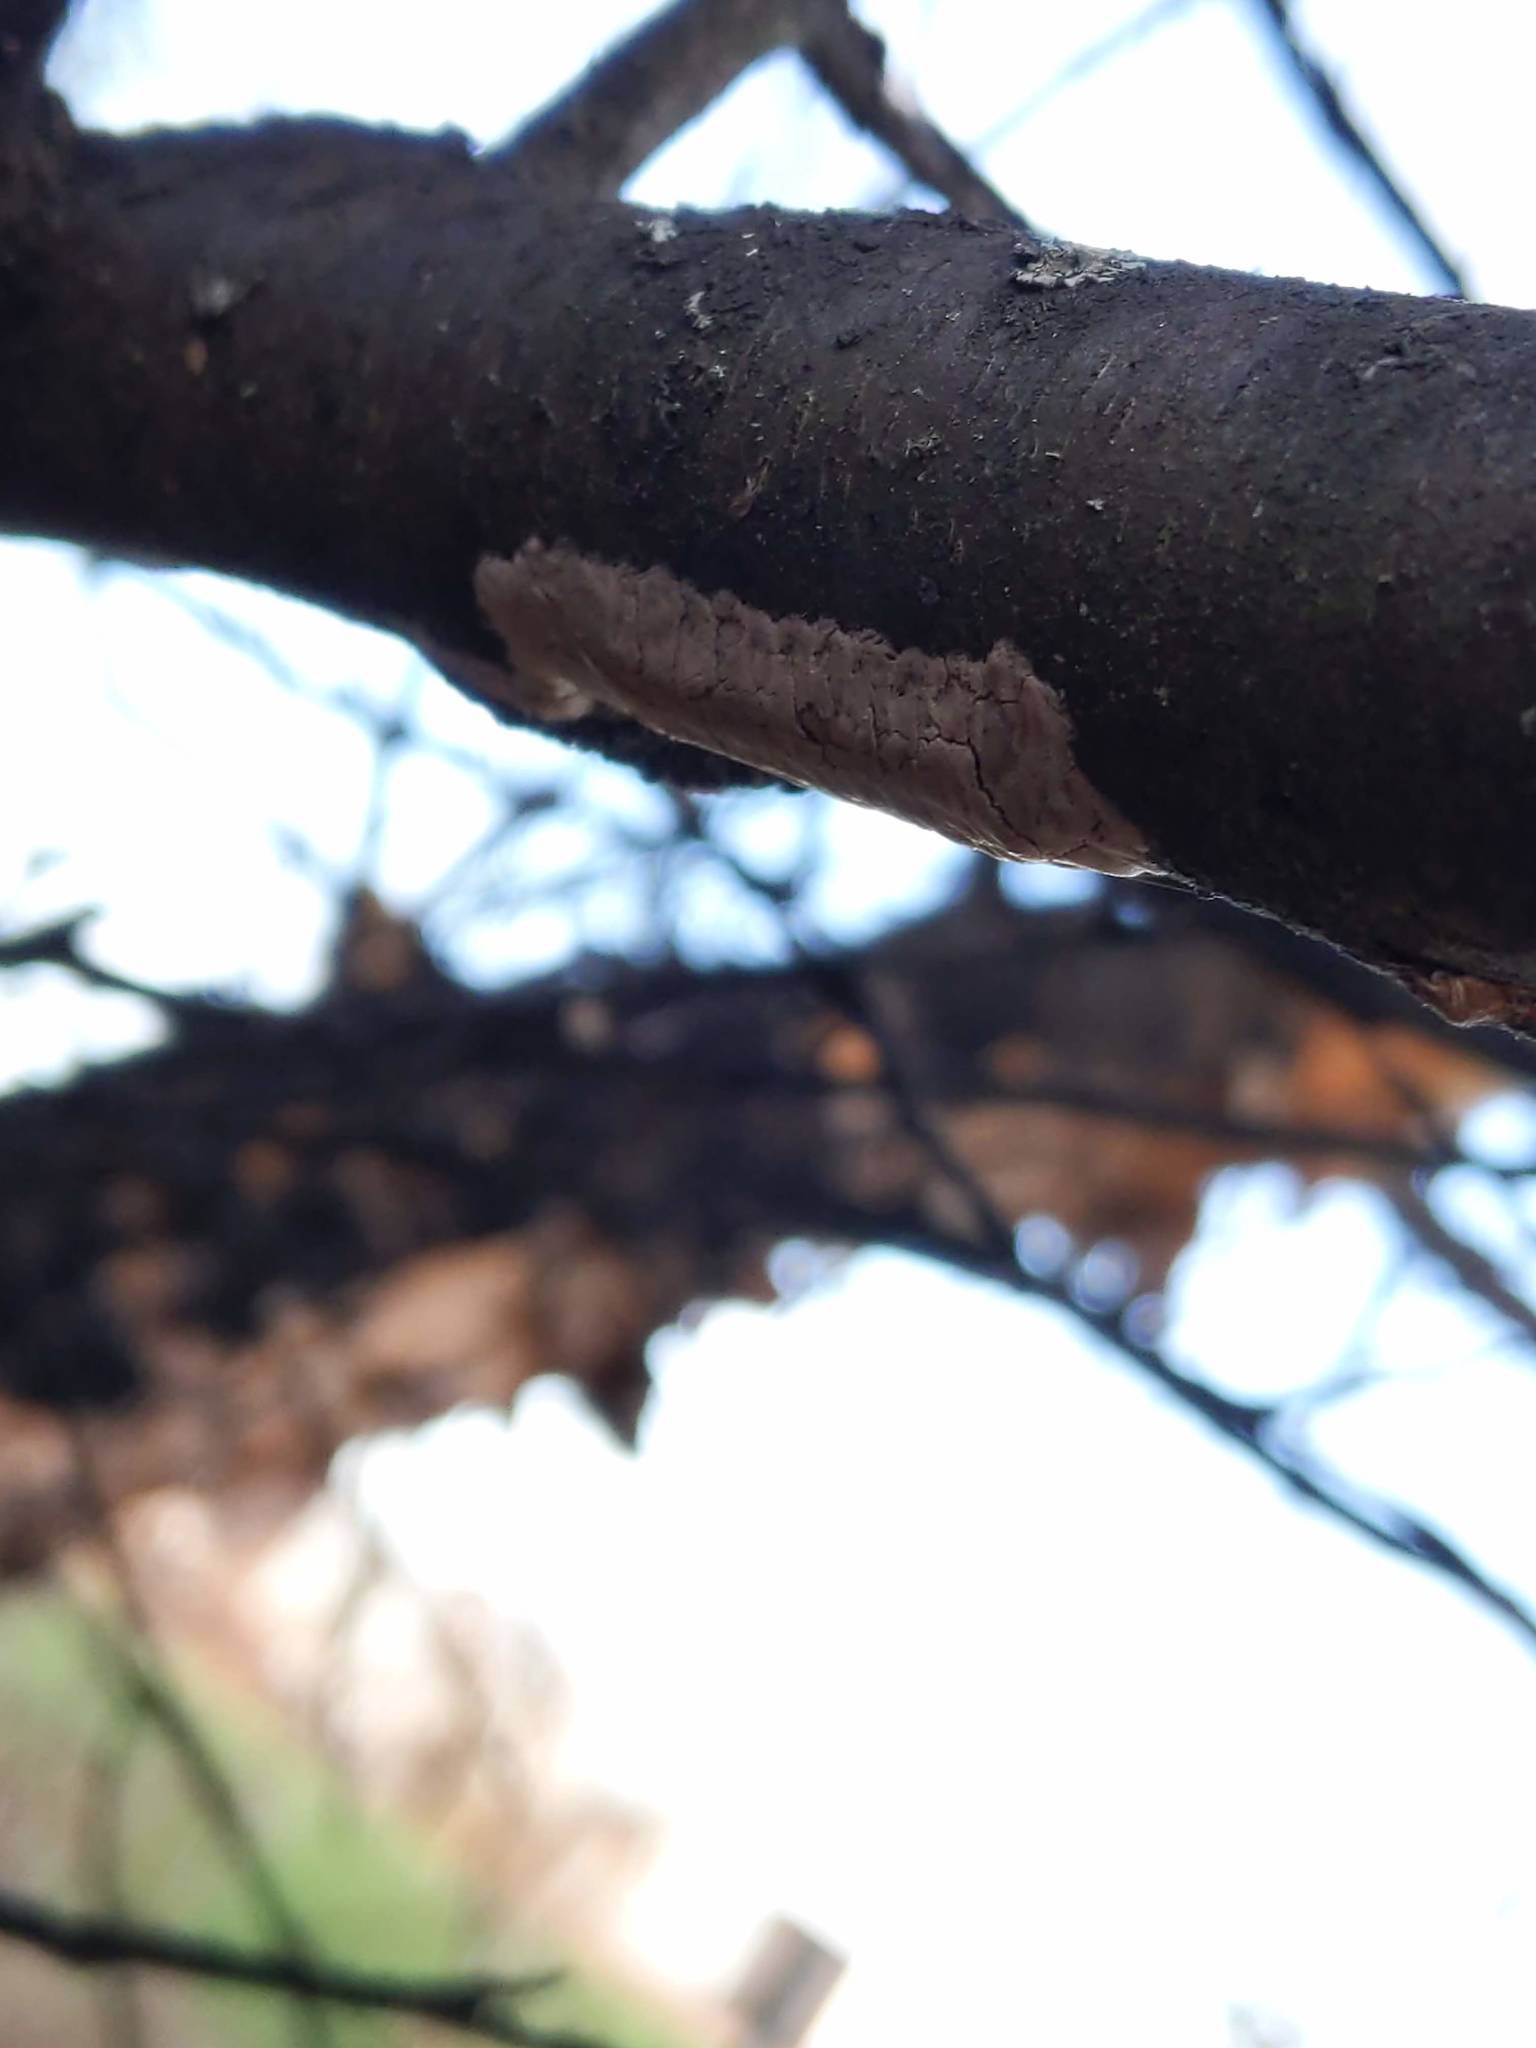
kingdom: Animalia
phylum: Arthropoda
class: Insecta
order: Hemiptera
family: Fulgoridae
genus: Lycorma
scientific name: Lycorma delicatula
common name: Spotted lanternfly
